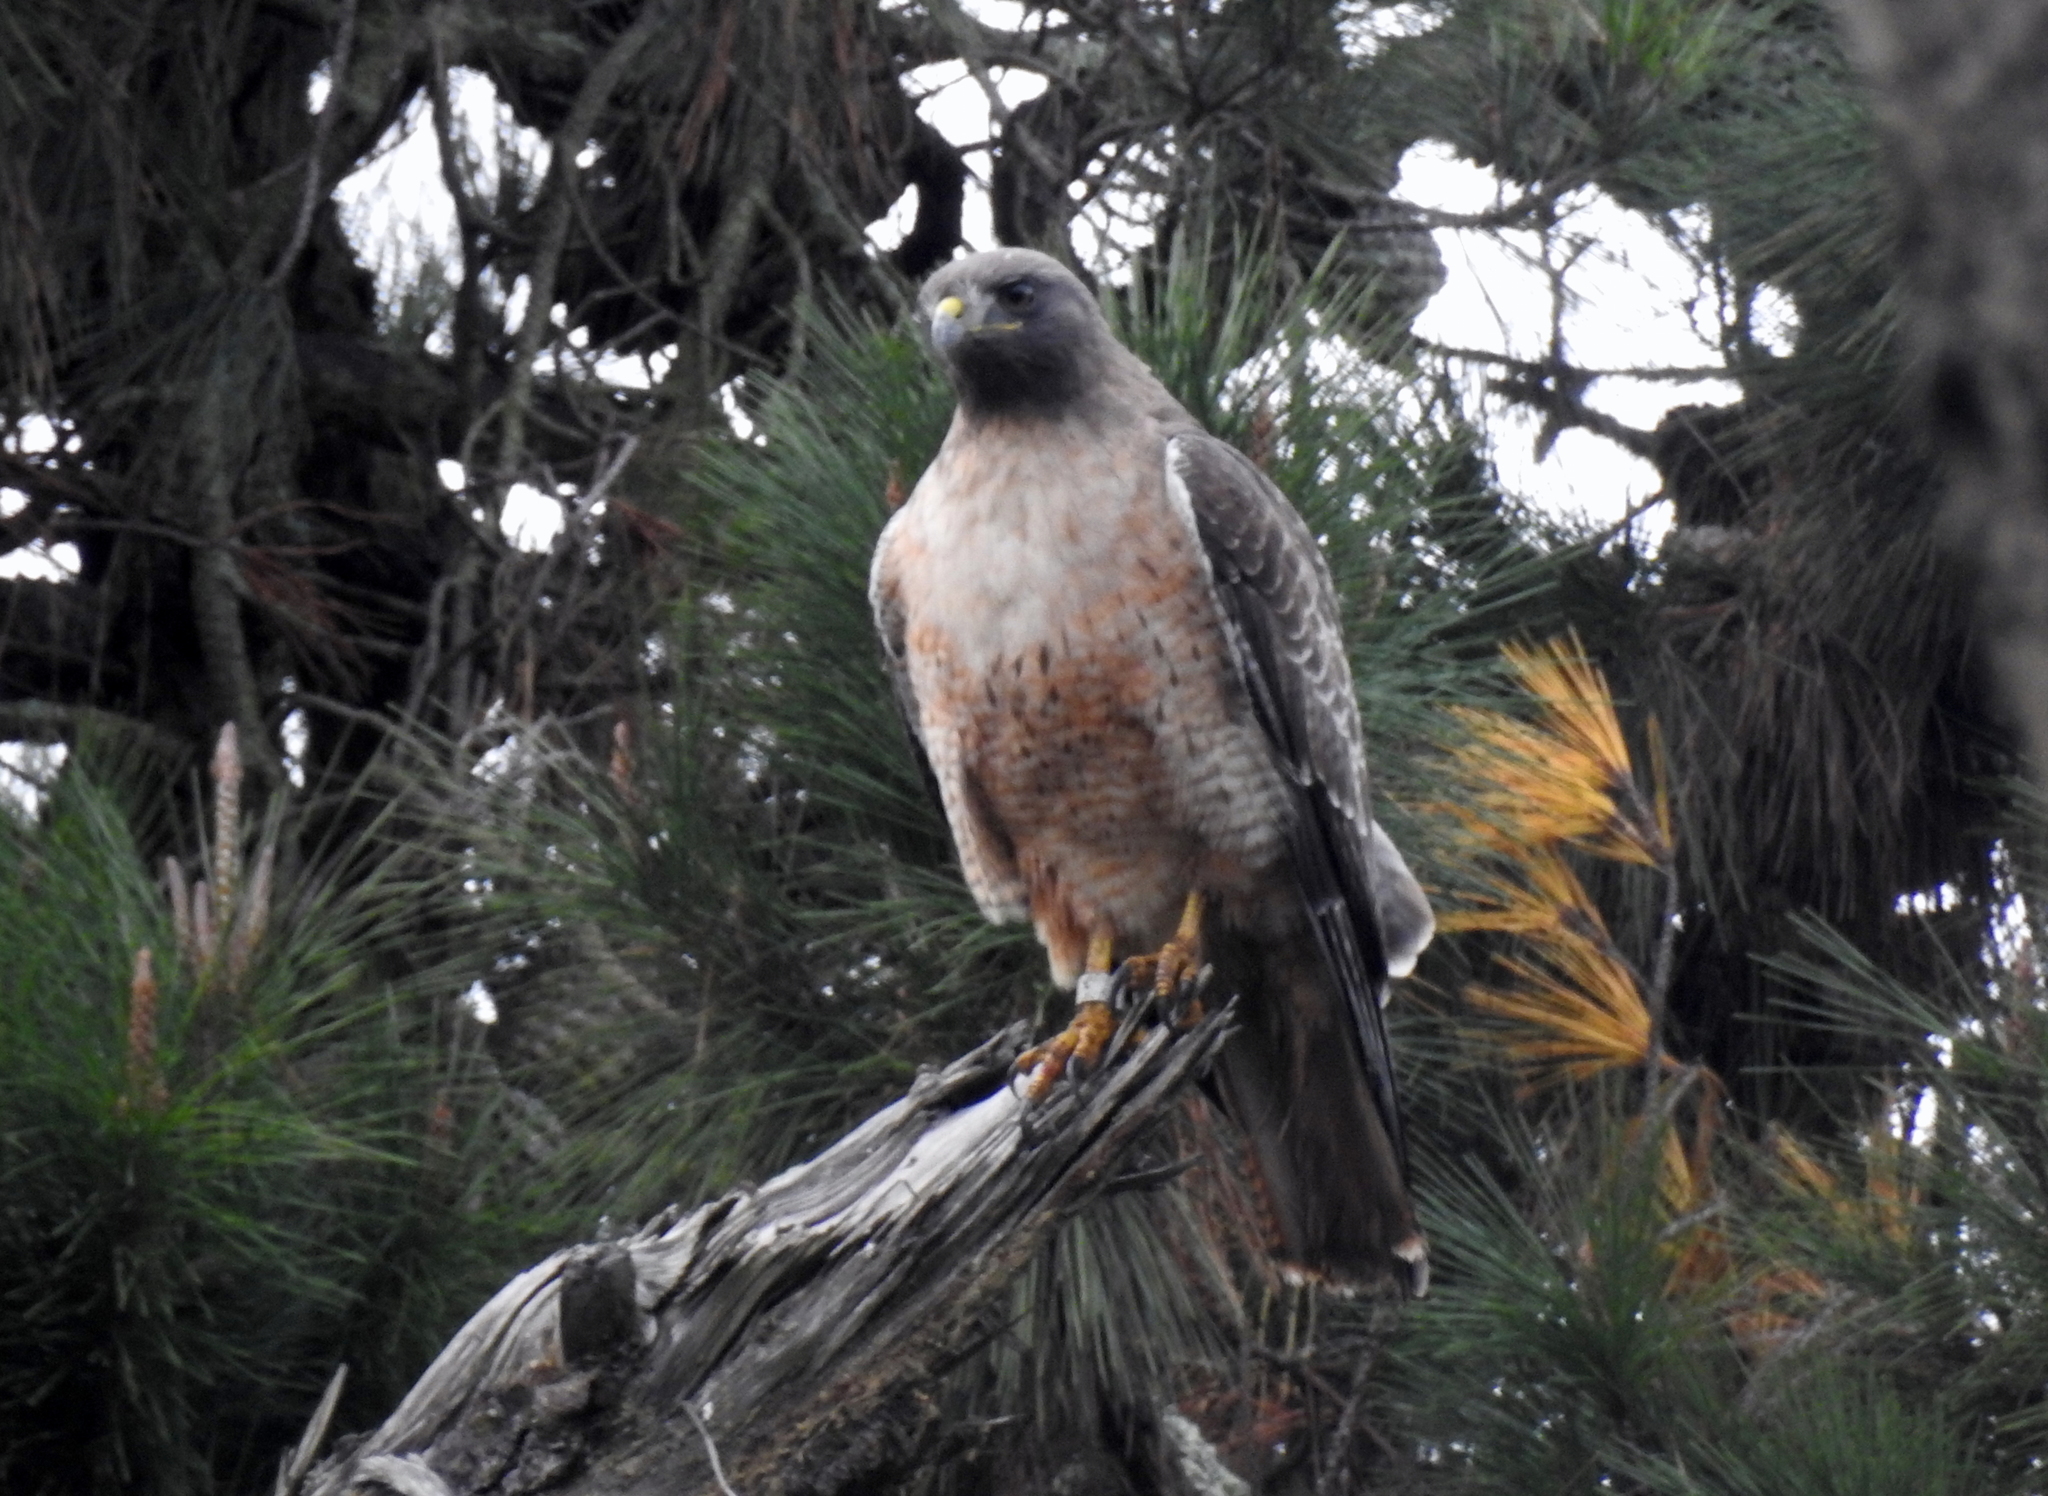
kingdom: Animalia
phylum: Chordata
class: Aves
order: Accipitriformes
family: Accipitridae
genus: Buteo
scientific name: Buteo jamaicensis
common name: Red-tailed hawk
